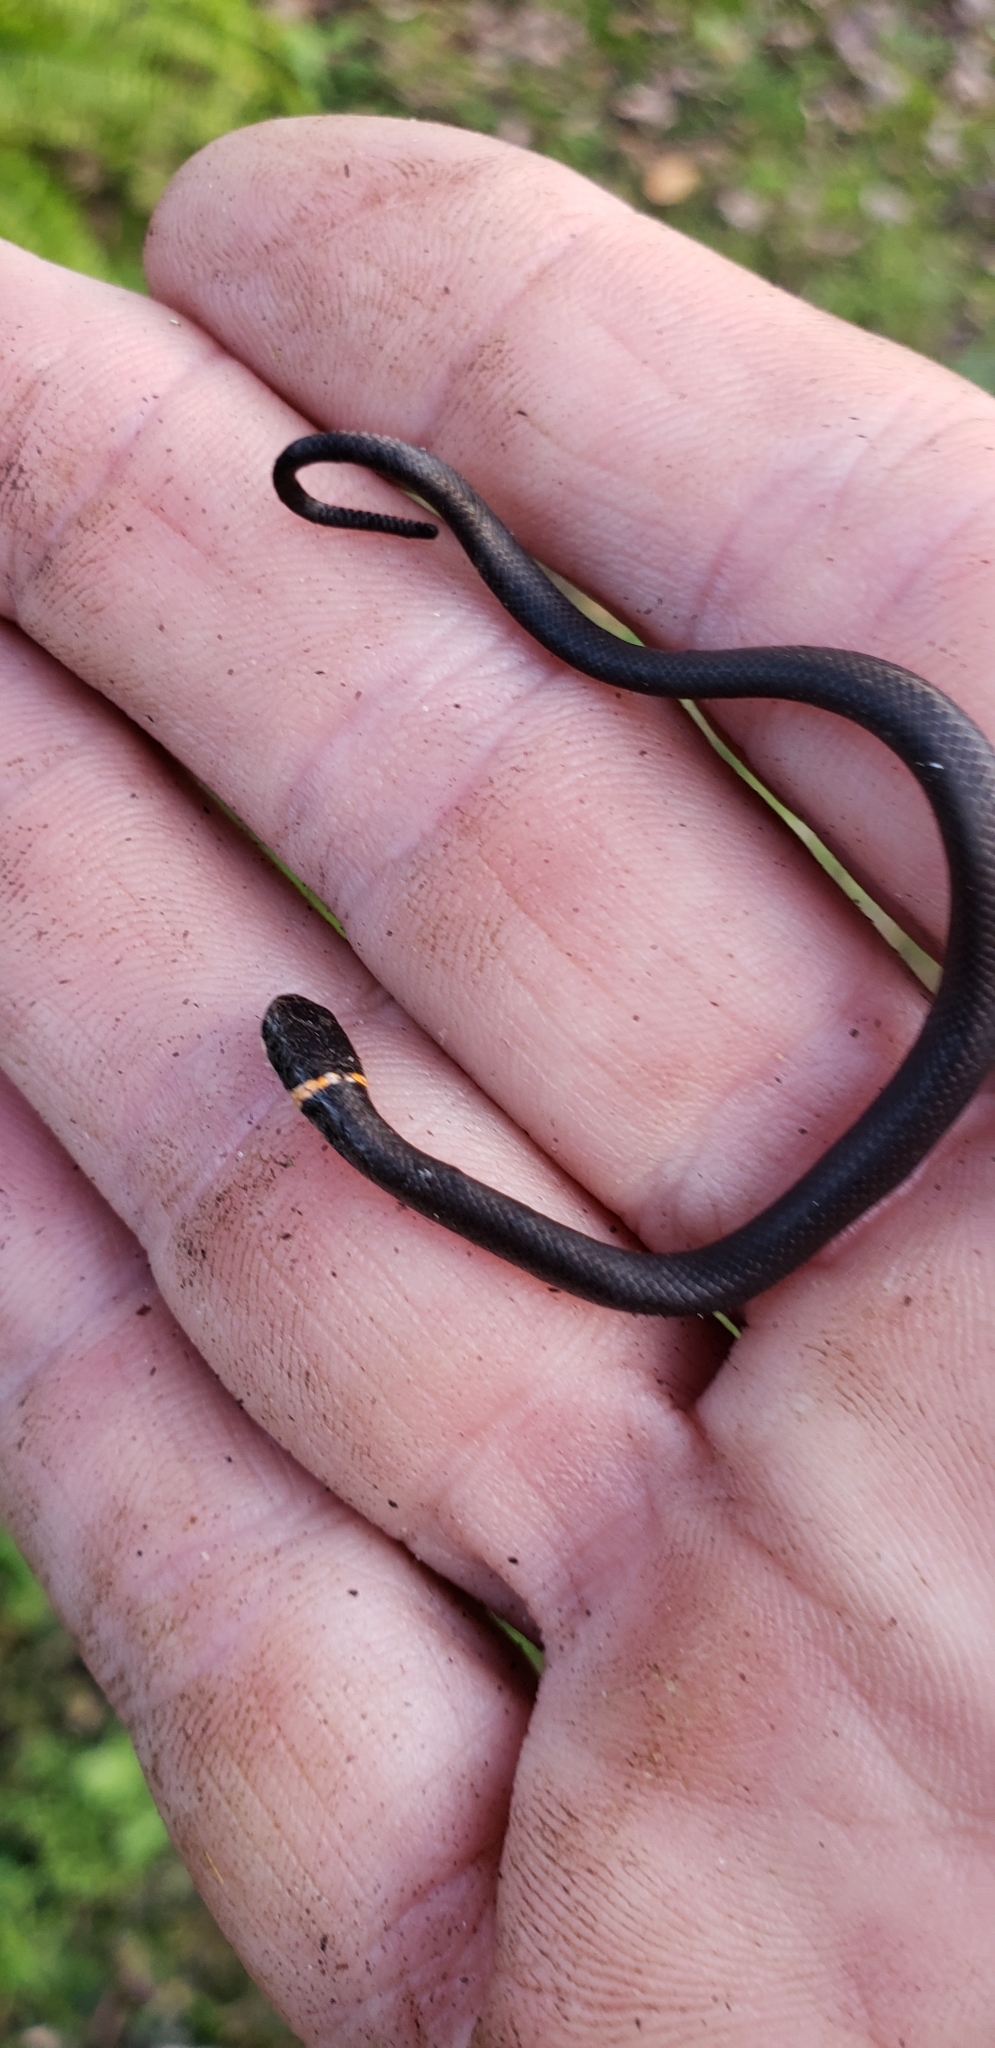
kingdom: Animalia
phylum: Chordata
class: Squamata
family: Colubridae
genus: Diadophis
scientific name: Diadophis punctatus
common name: Ringneck snake
